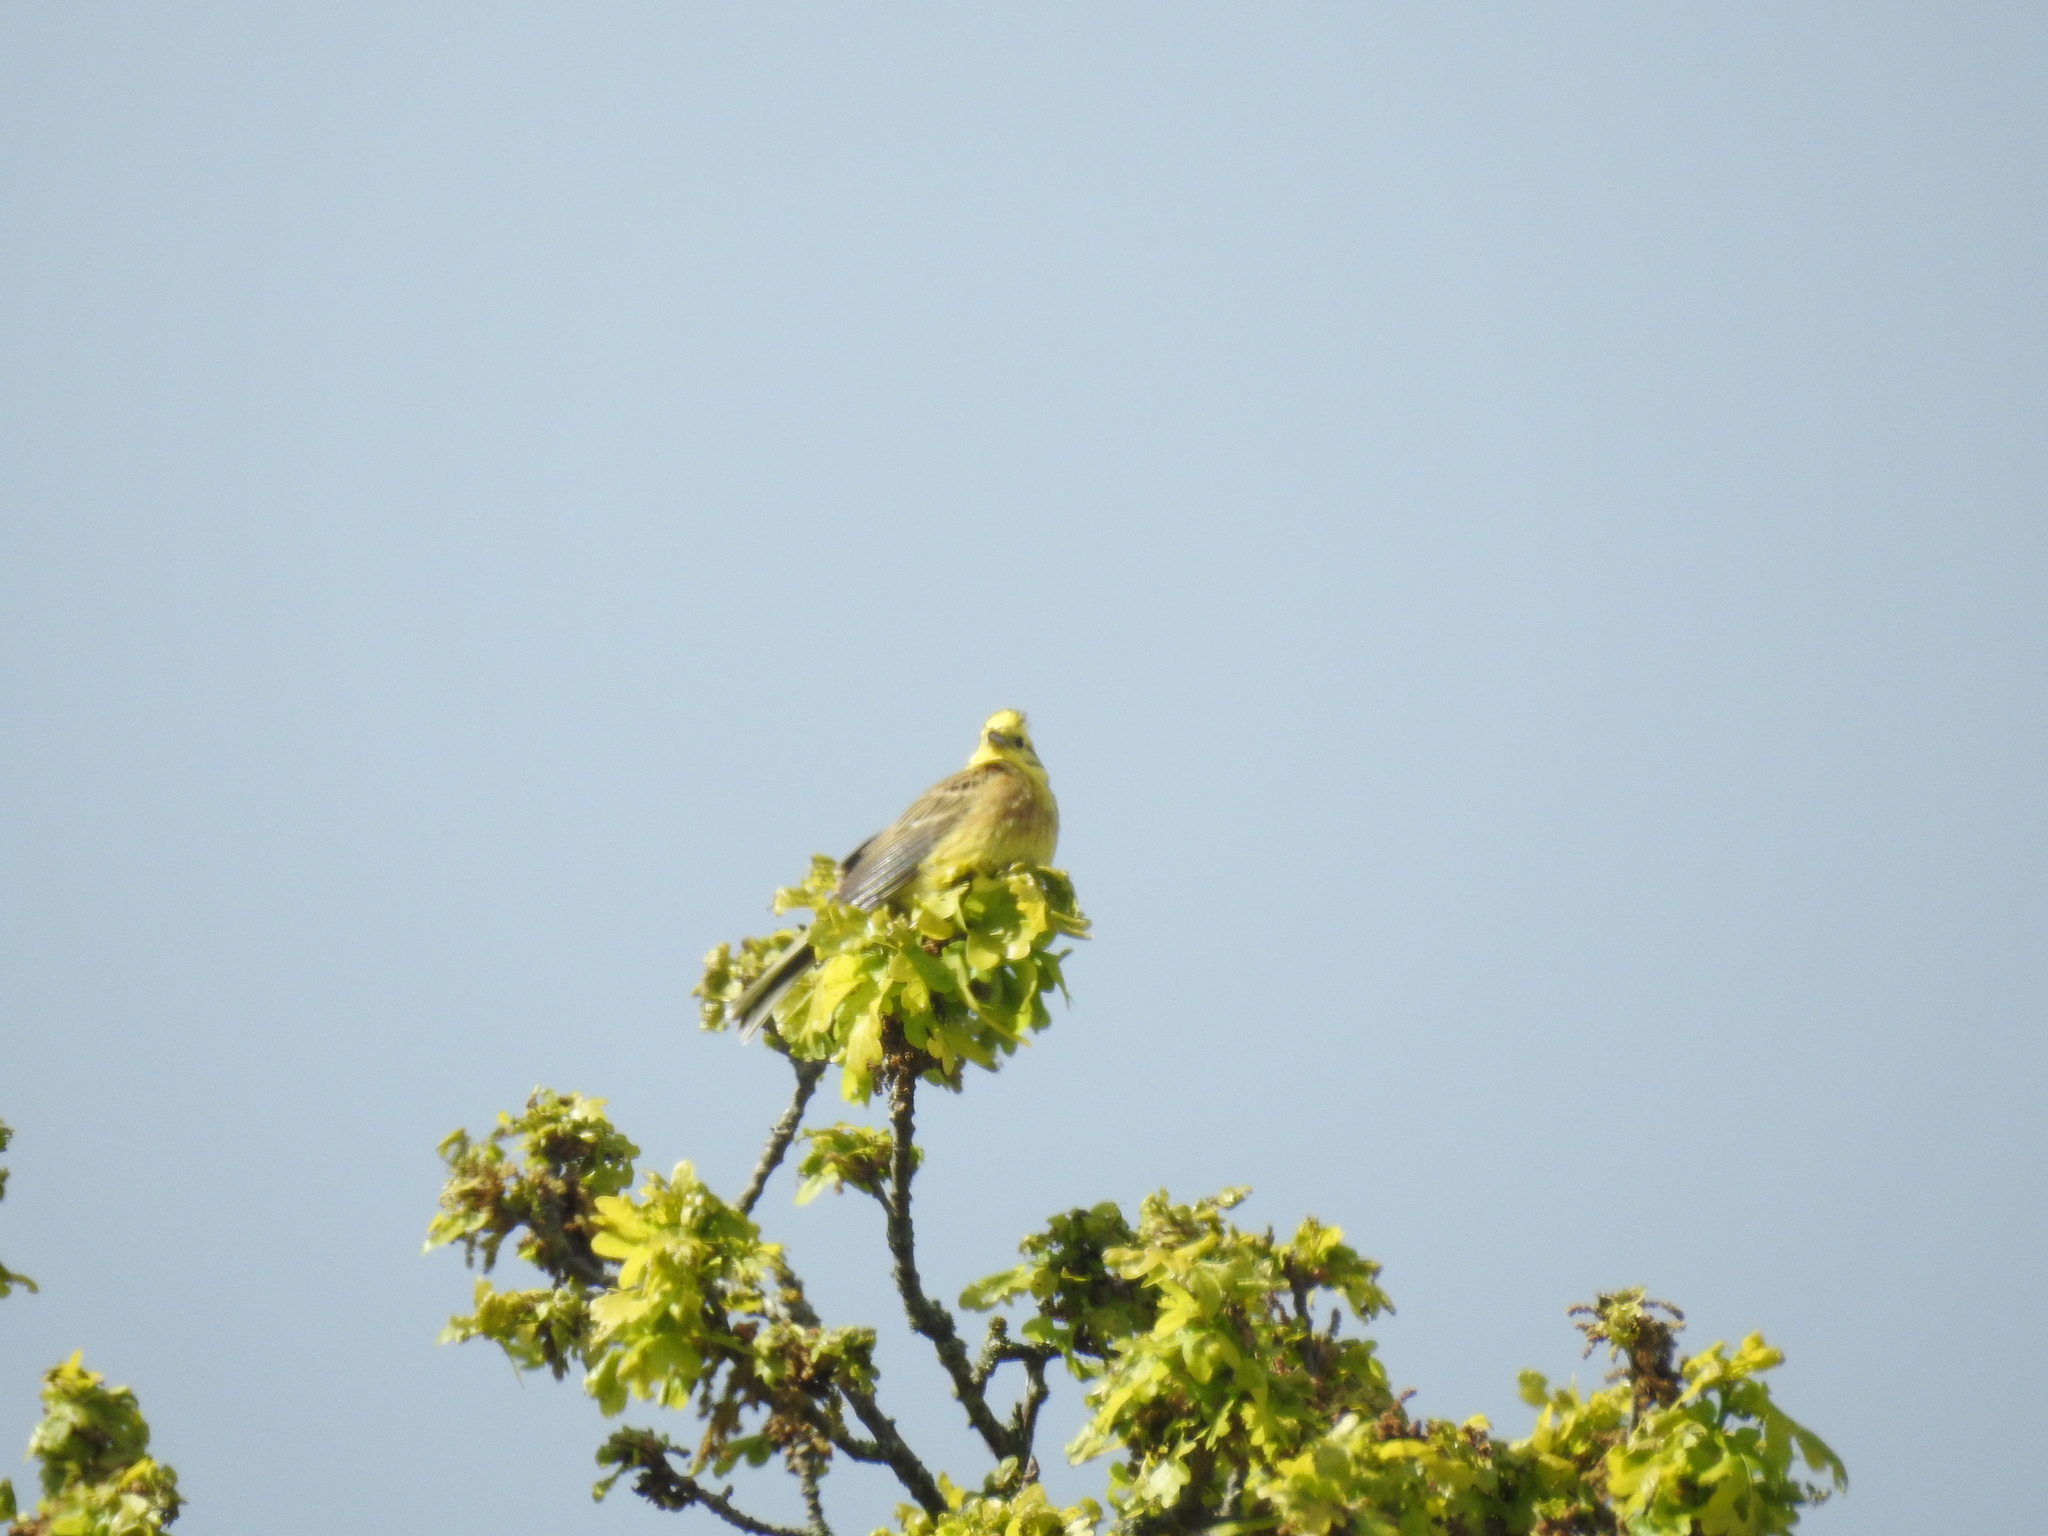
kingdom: Animalia
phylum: Chordata
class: Aves
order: Passeriformes
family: Emberizidae
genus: Emberiza
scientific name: Emberiza citrinella
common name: Yellowhammer
